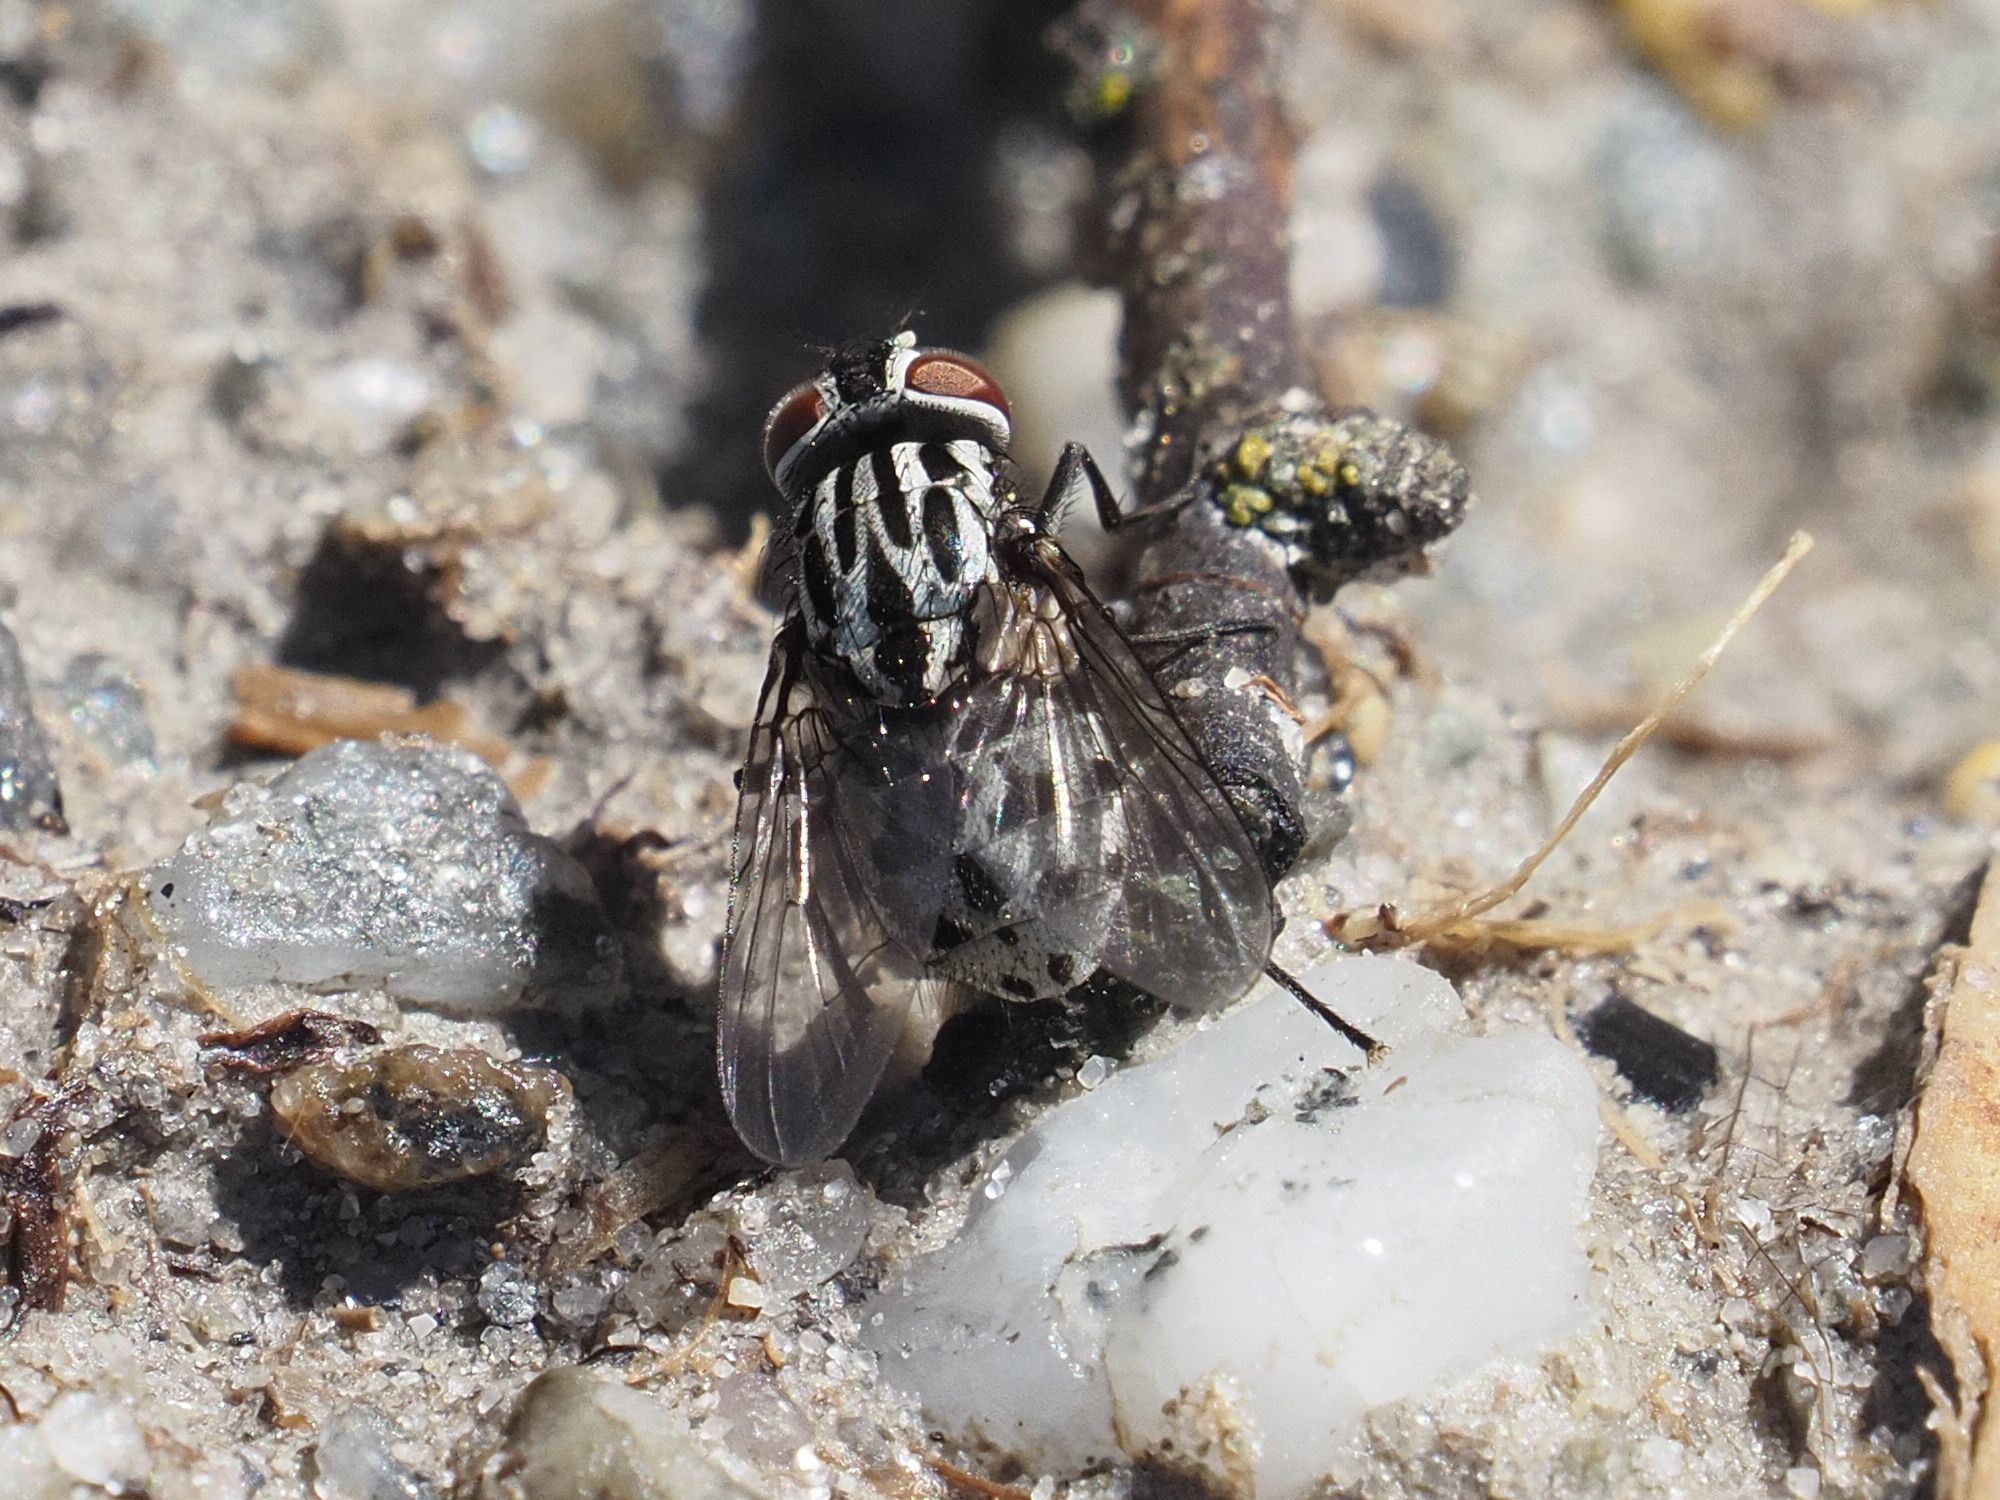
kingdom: Animalia
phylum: Arthropoda
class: Insecta
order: Diptera
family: Muscidae
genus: Graphomya
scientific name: Graphomya maculata
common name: Muscid fly
